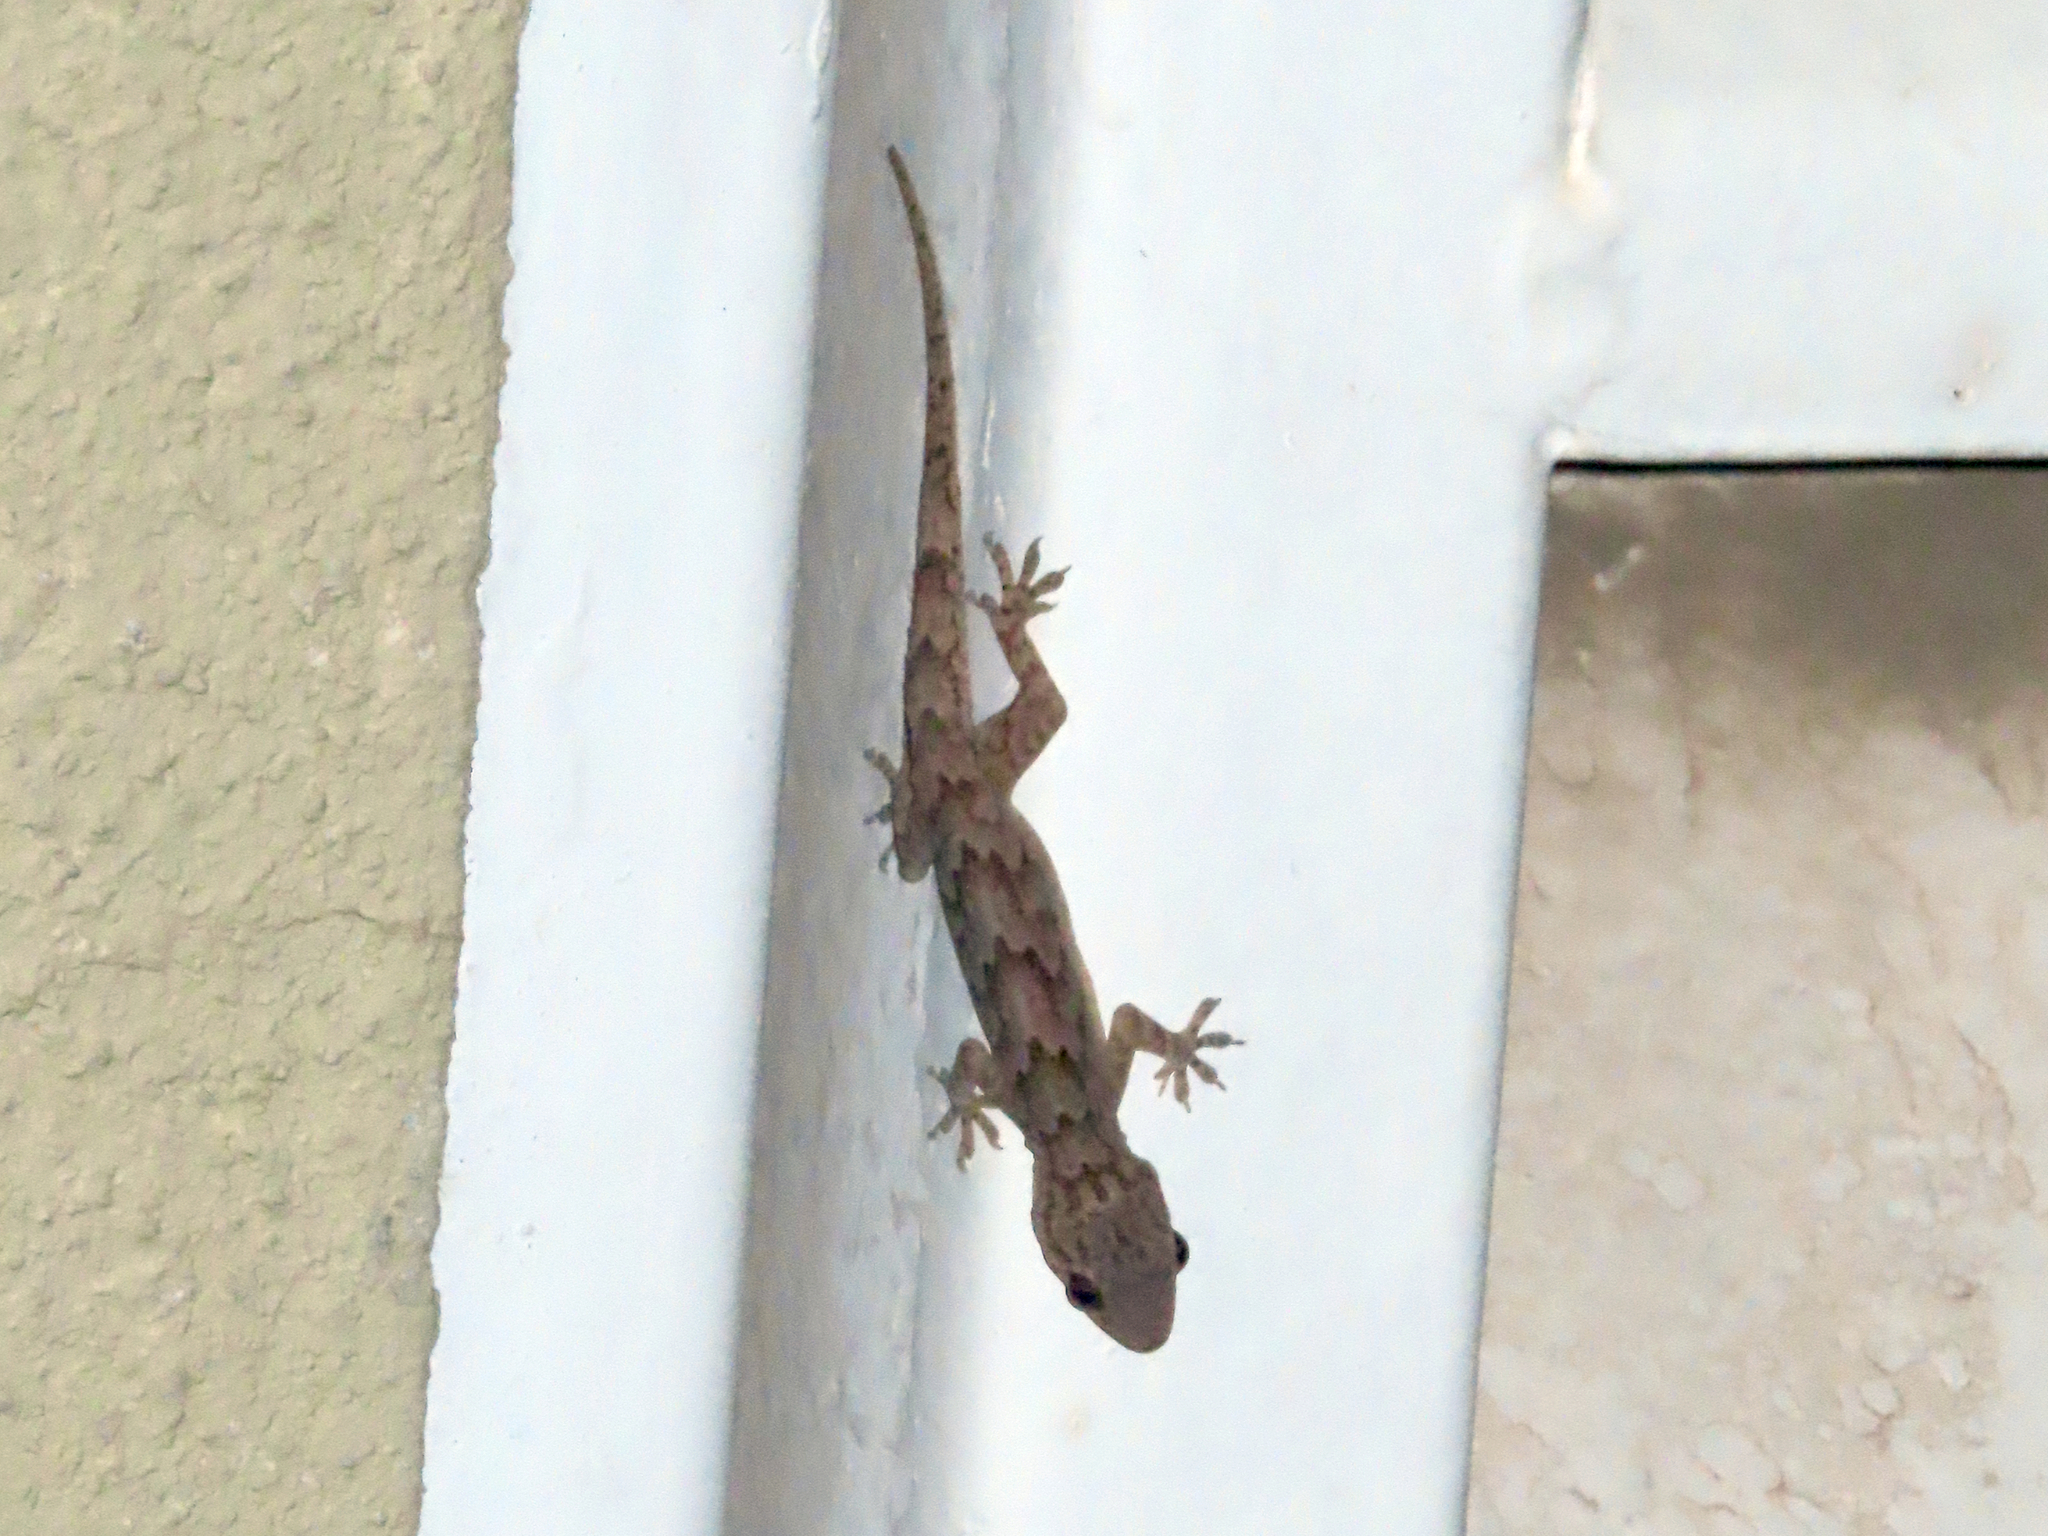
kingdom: Animalia
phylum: Chordata
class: Squamata
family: Gekkonidae
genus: Hemidactylus
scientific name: Hemidactylus flaviviridis
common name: Northern house gecko
